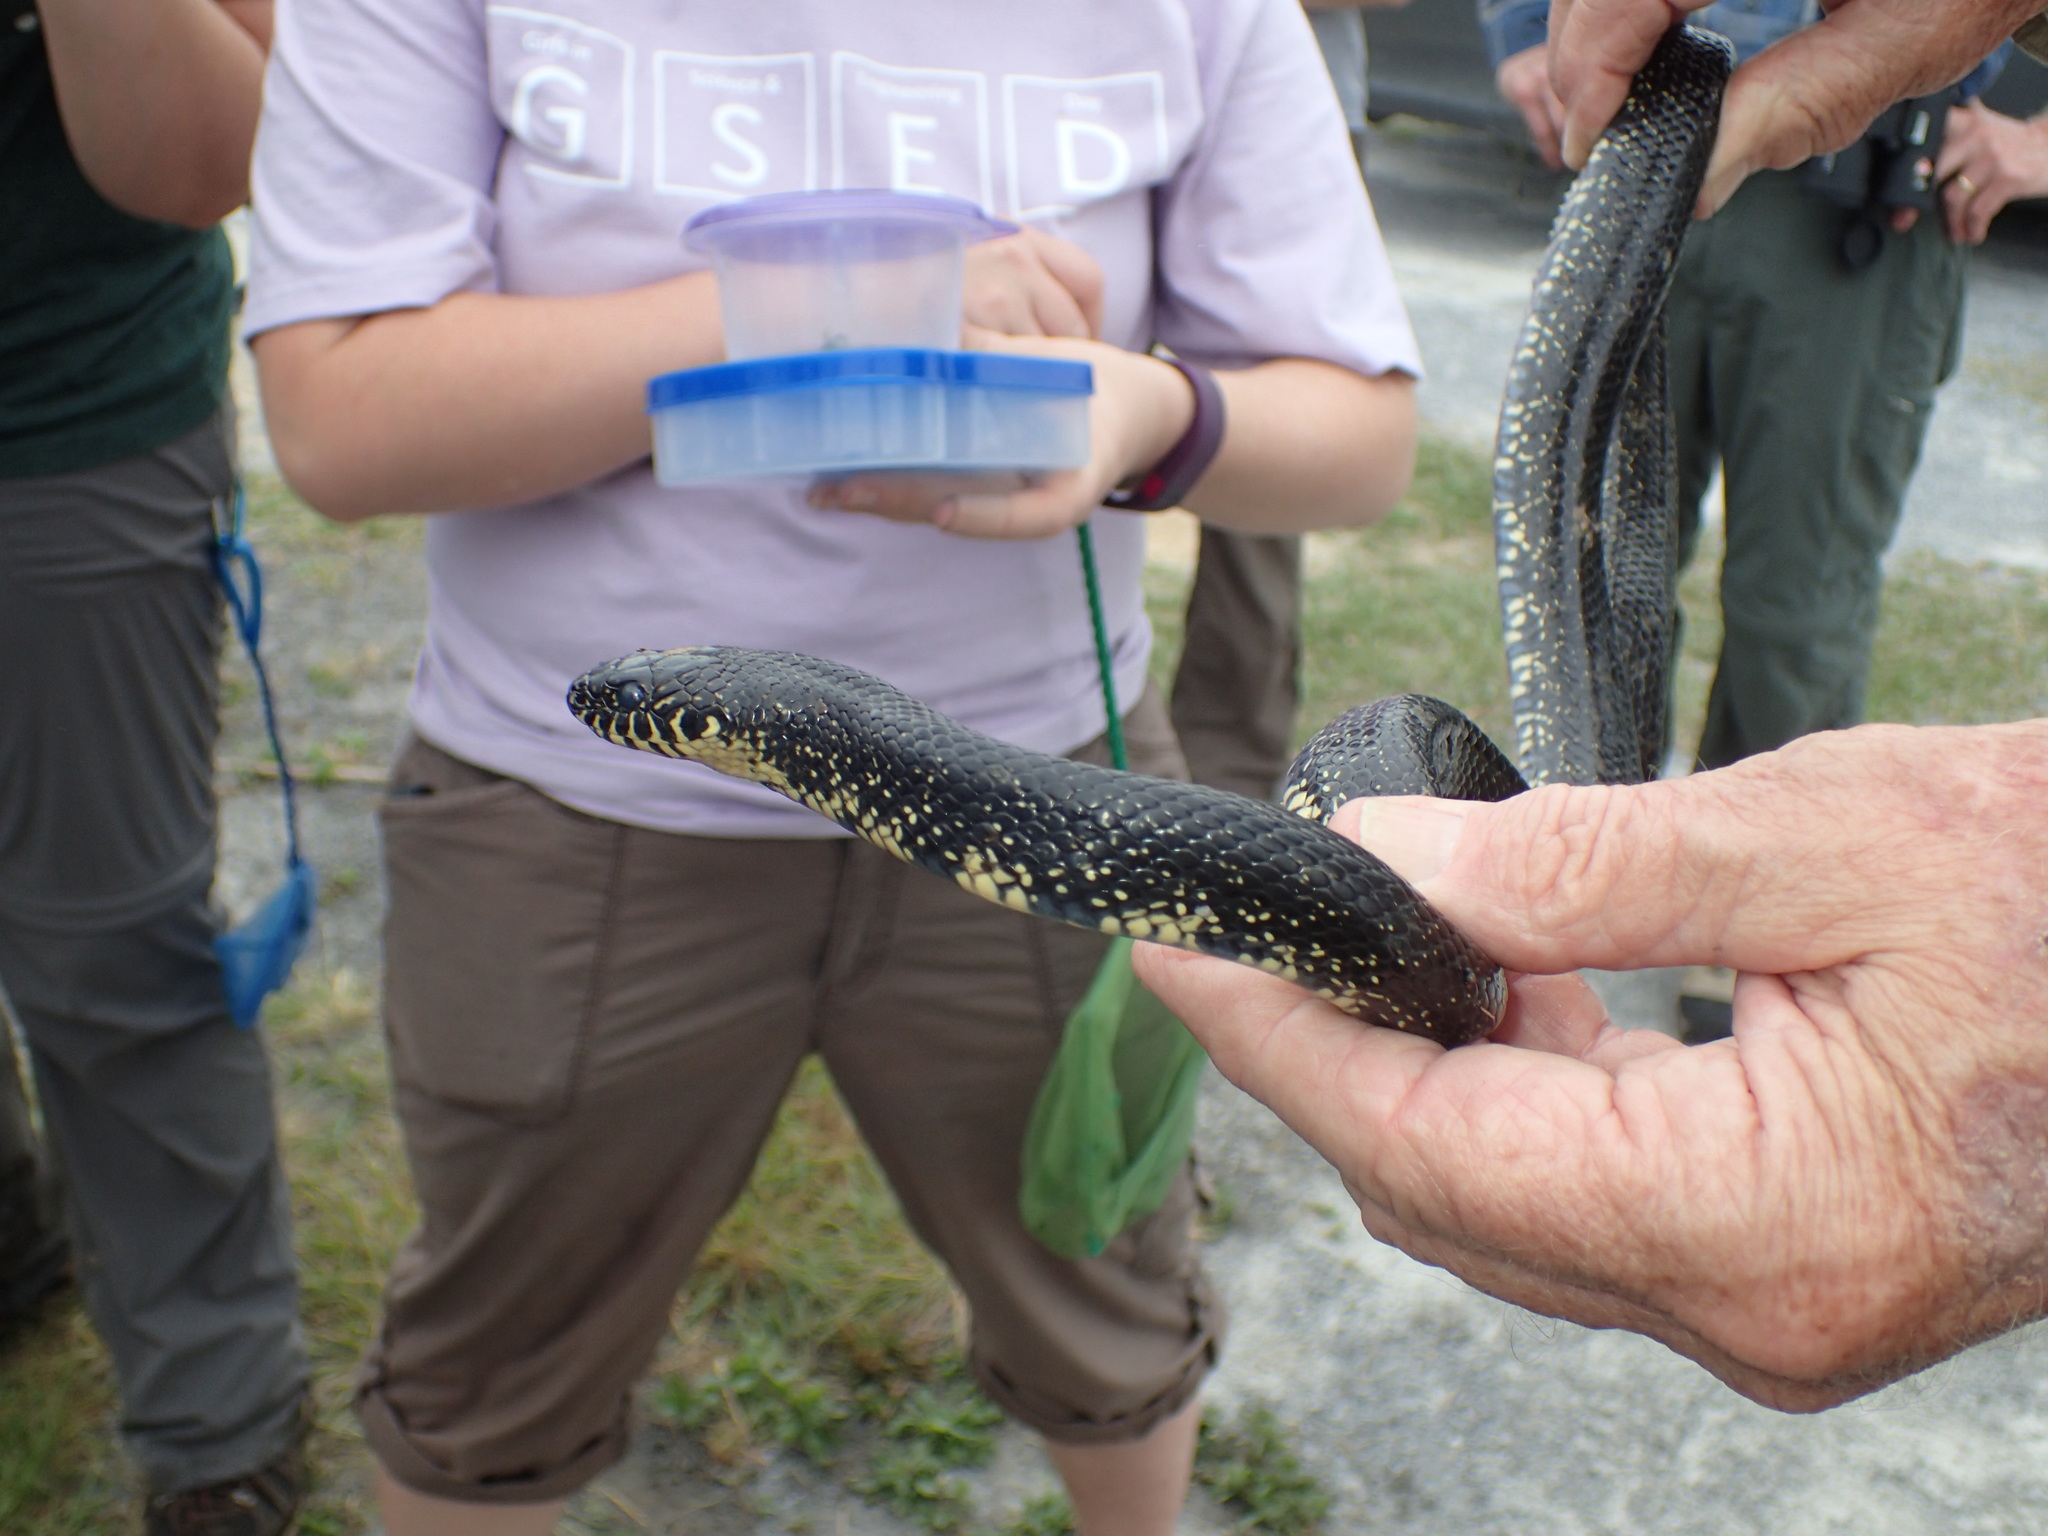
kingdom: Animalia
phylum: Chordata
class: Squamata
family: Colubridae
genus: Lampropeltis
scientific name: Lampropeltis nigra
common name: Black kingsnake
